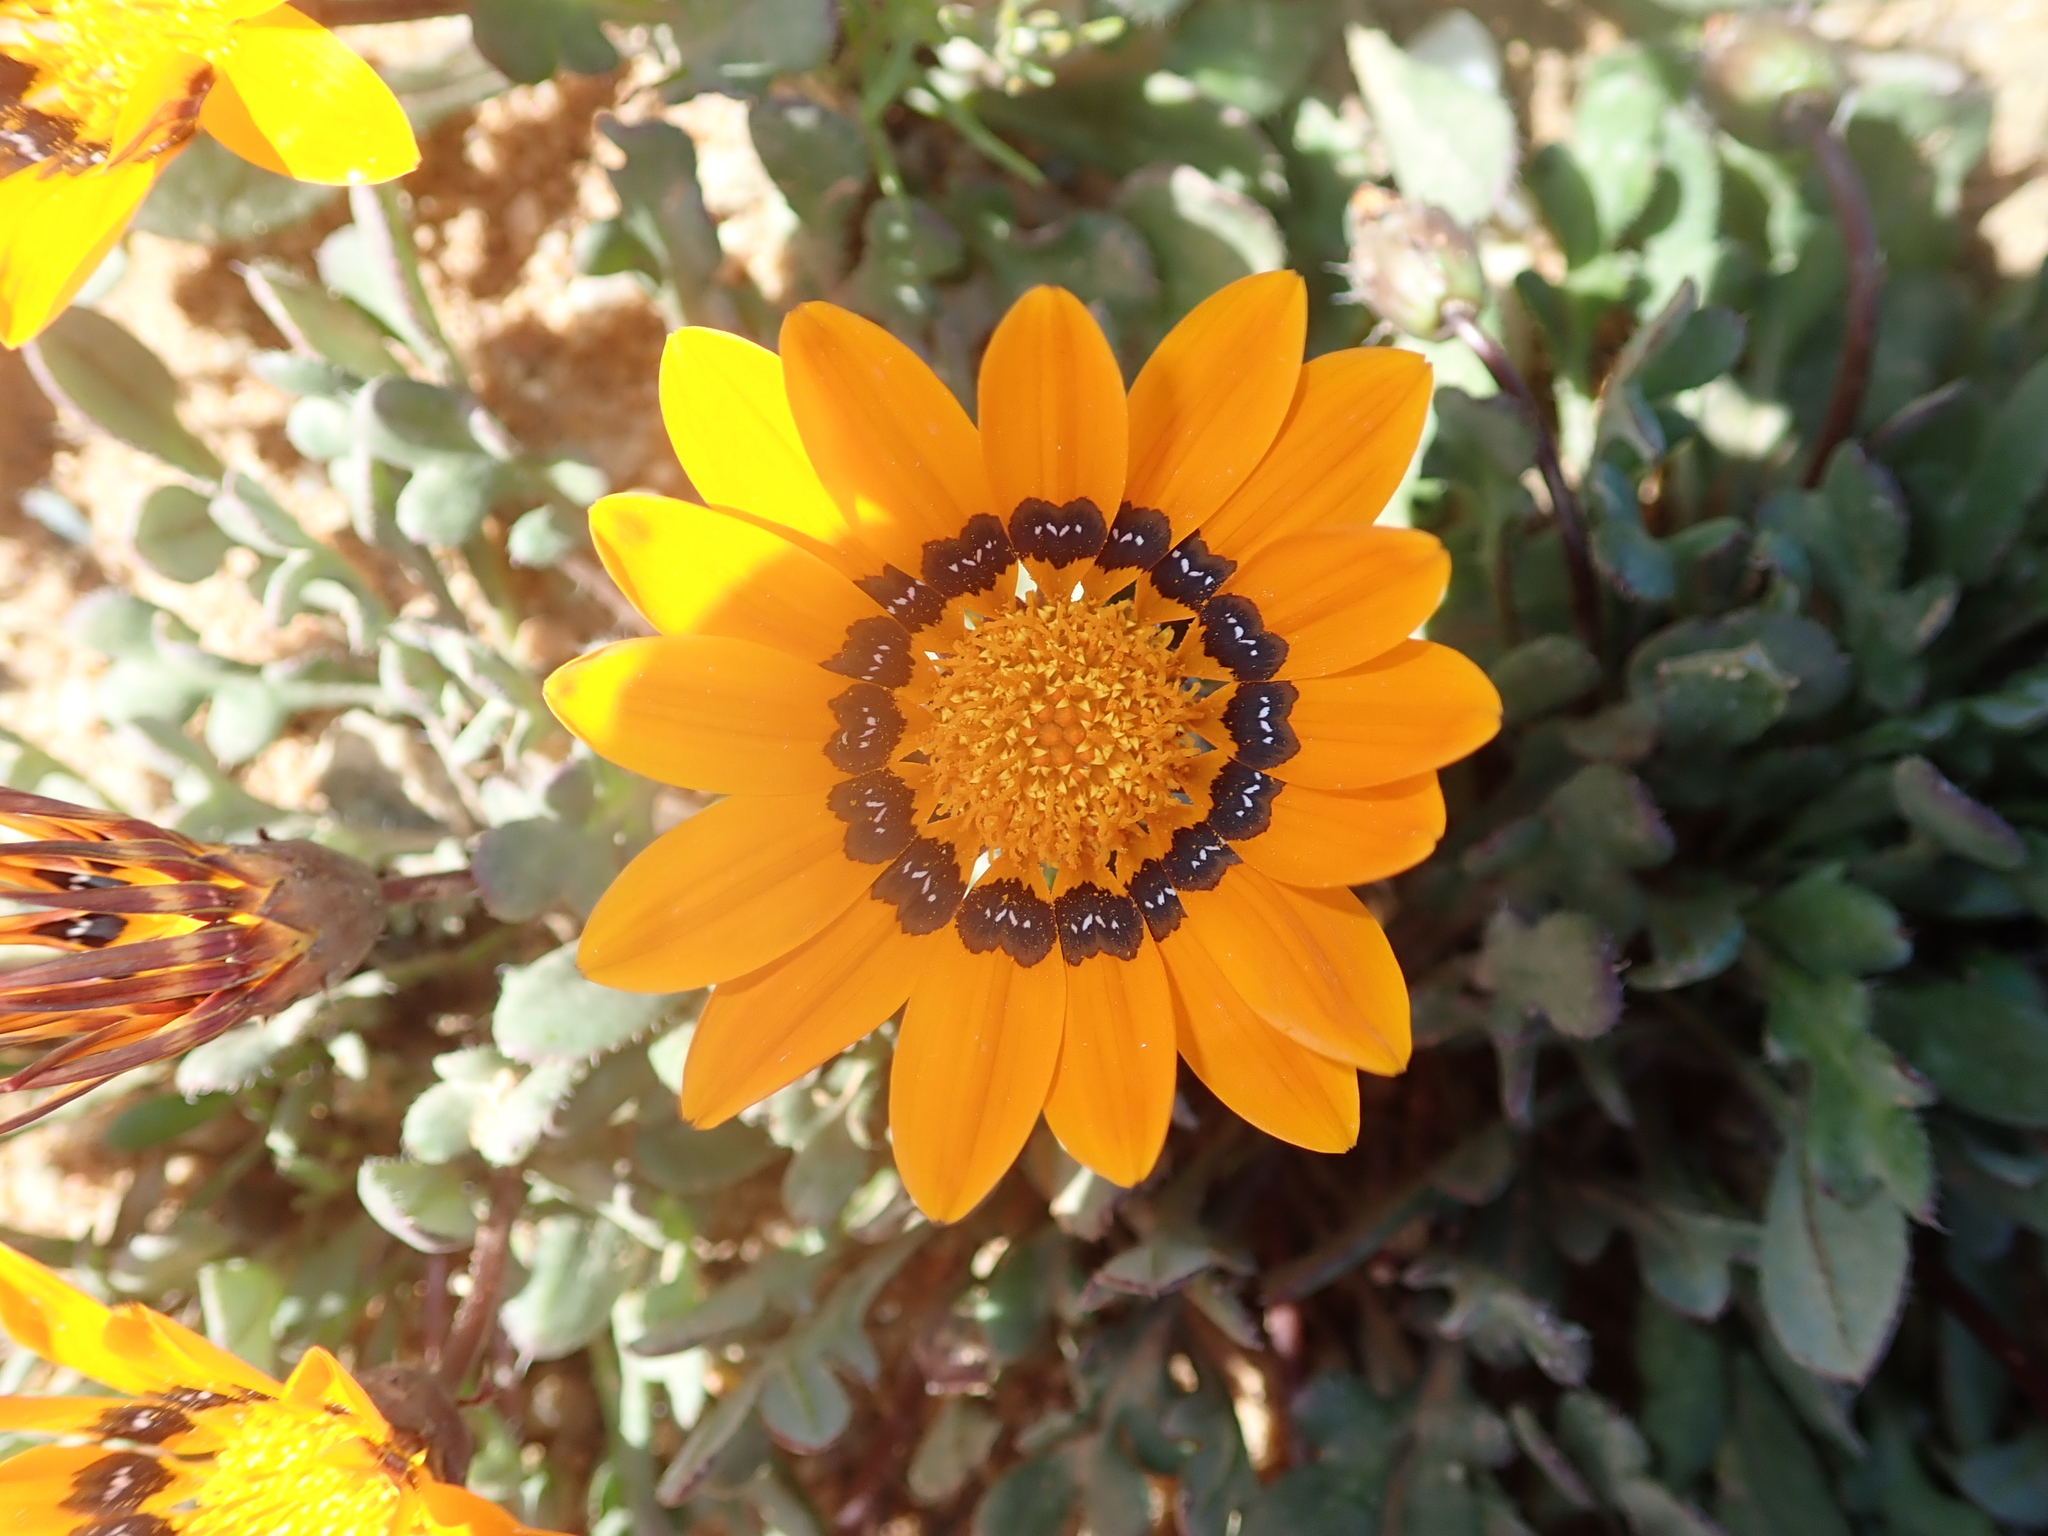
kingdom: Plantae
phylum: Tracheophyta
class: Magnoliopsida
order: Asterales
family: Asteraceae
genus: Gazania
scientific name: Gazania heterochaeta
